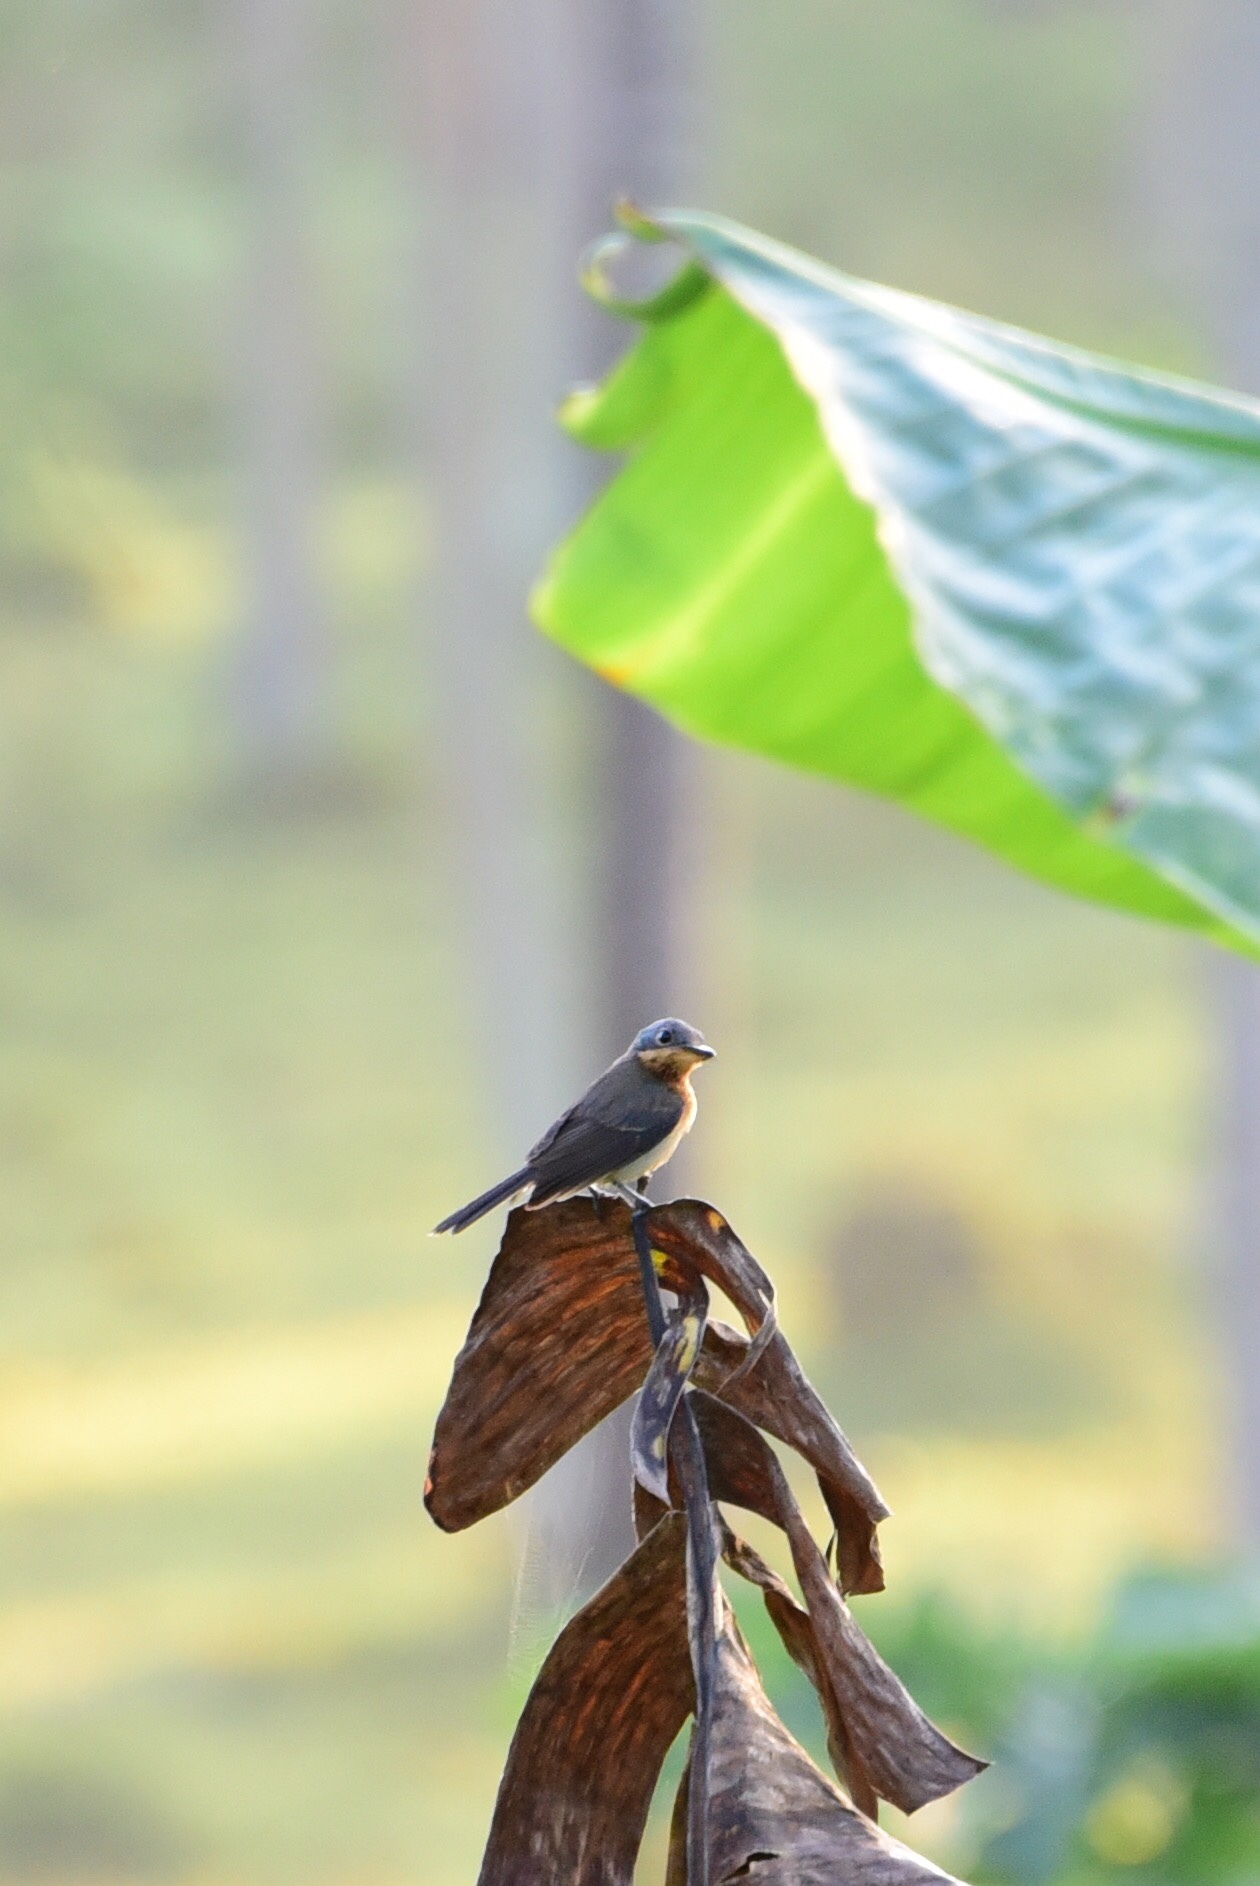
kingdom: Animalia
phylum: Chordata
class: Aves
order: Passeriformes
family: Monarchidae
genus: Myiagra
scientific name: Myiagra caledonica
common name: Melanesian flycatcher
